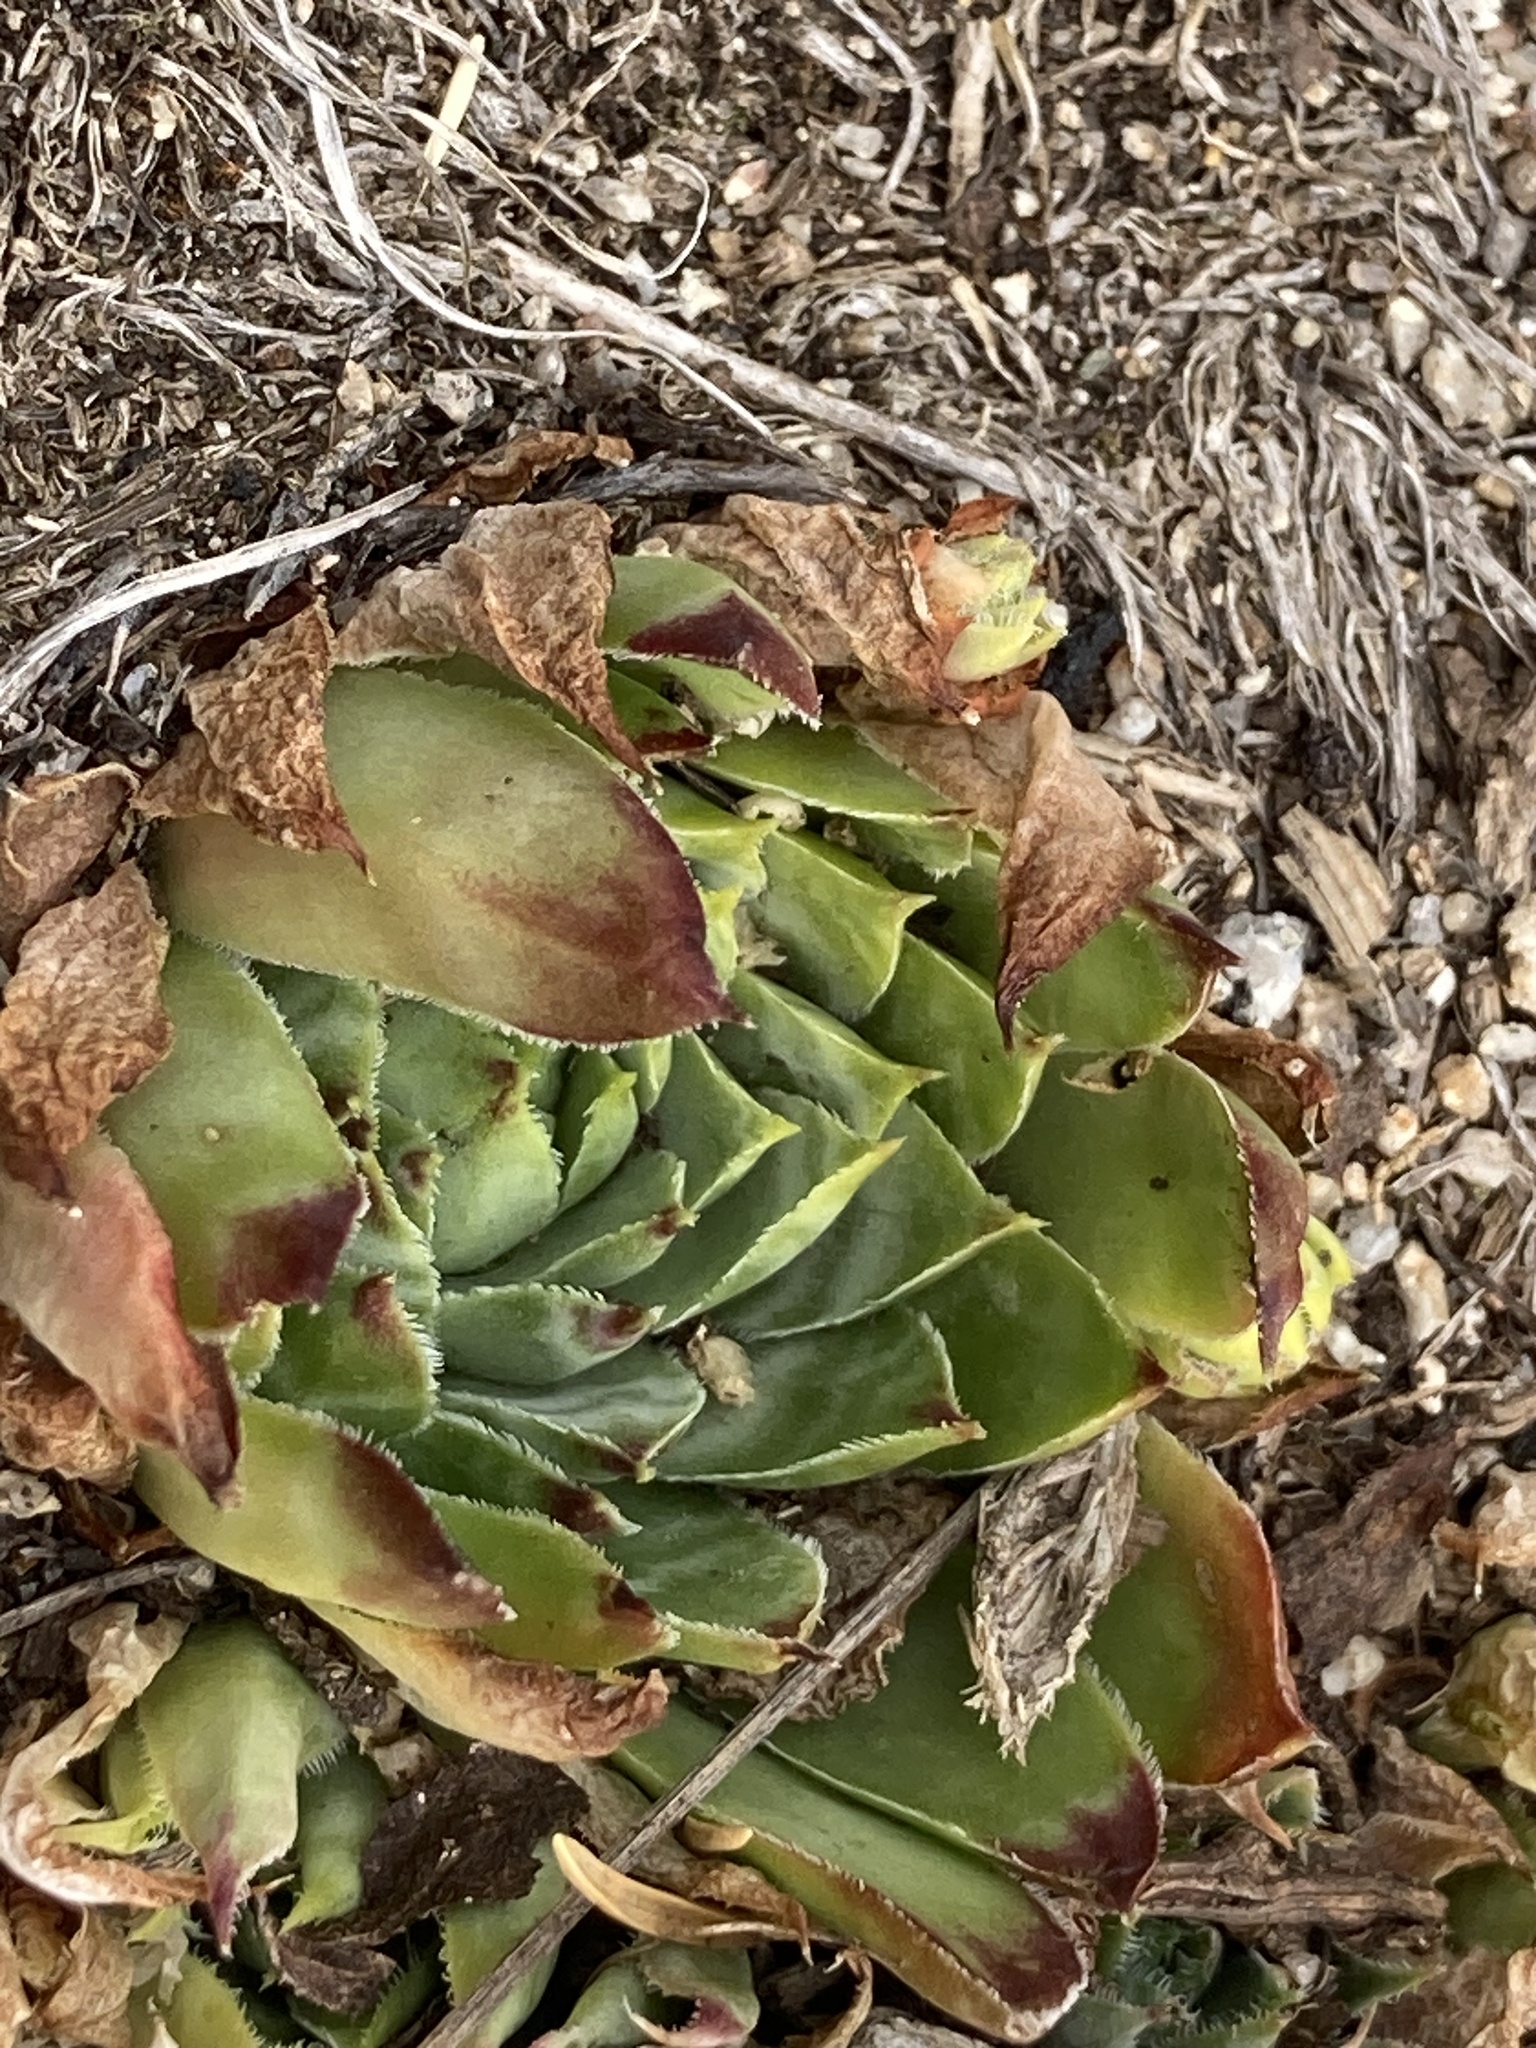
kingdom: Plantae
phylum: Tracheophyta
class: Magnoliopsida
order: Saxifragales
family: Crassulaceae
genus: Sempervivum
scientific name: Sempervivum tectorum
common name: House-leek
